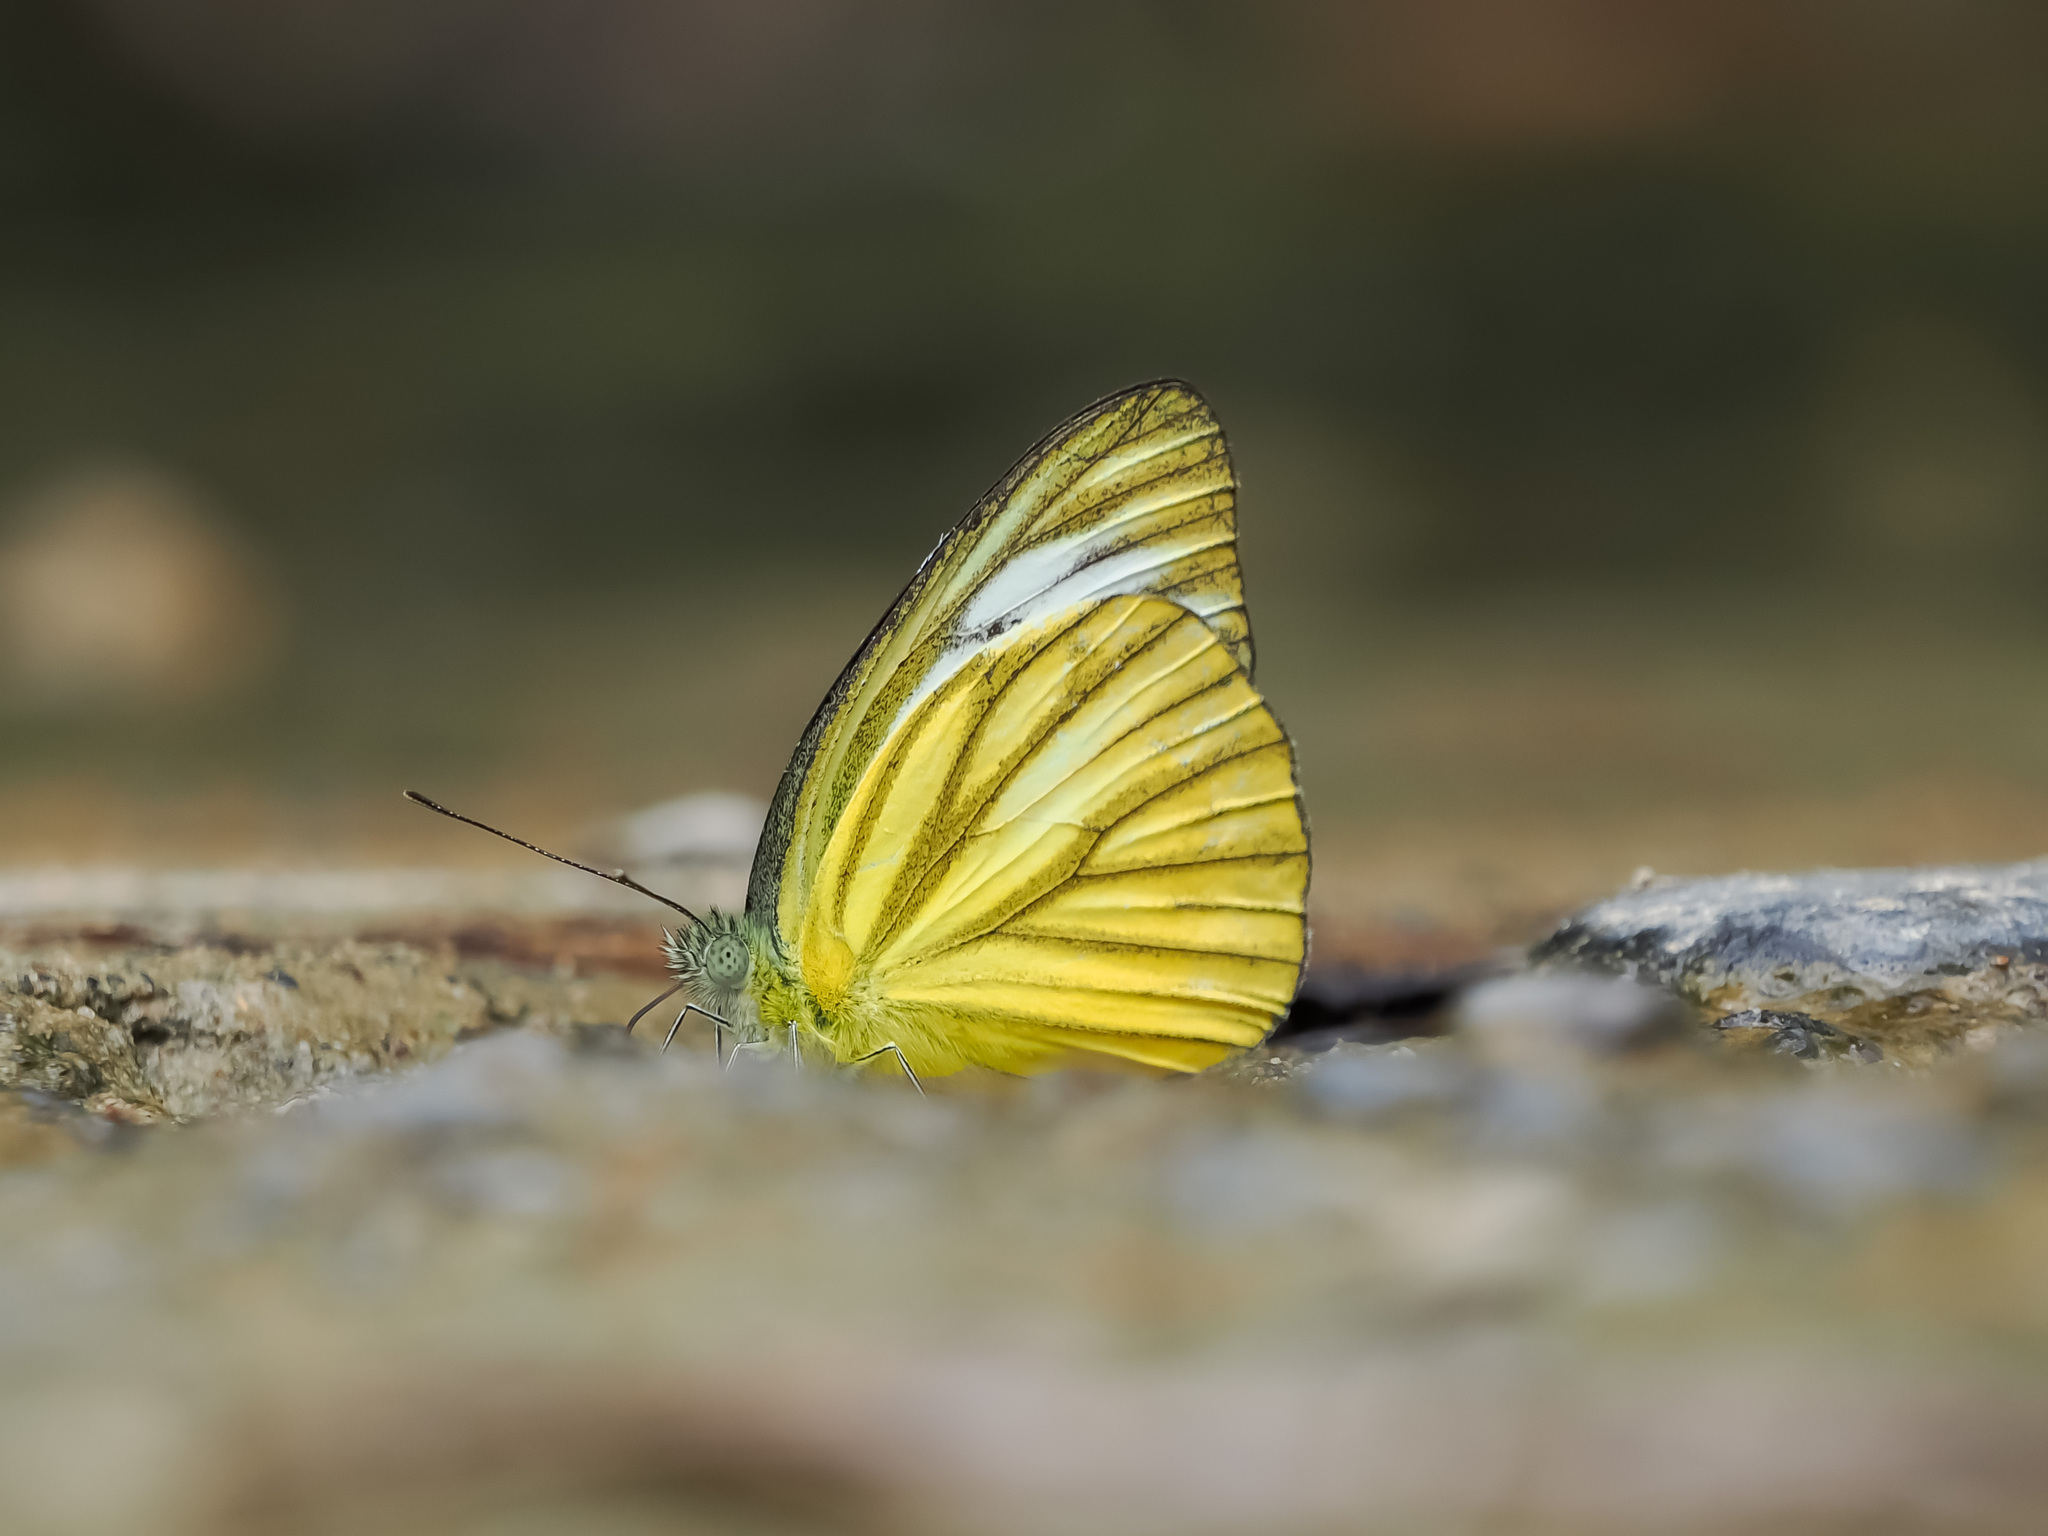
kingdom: Animalia
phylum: Arthropoda
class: Insecta
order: Lepidoptera
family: Pieridae
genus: Cepora
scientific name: Cepora nerissa
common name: Common gull
